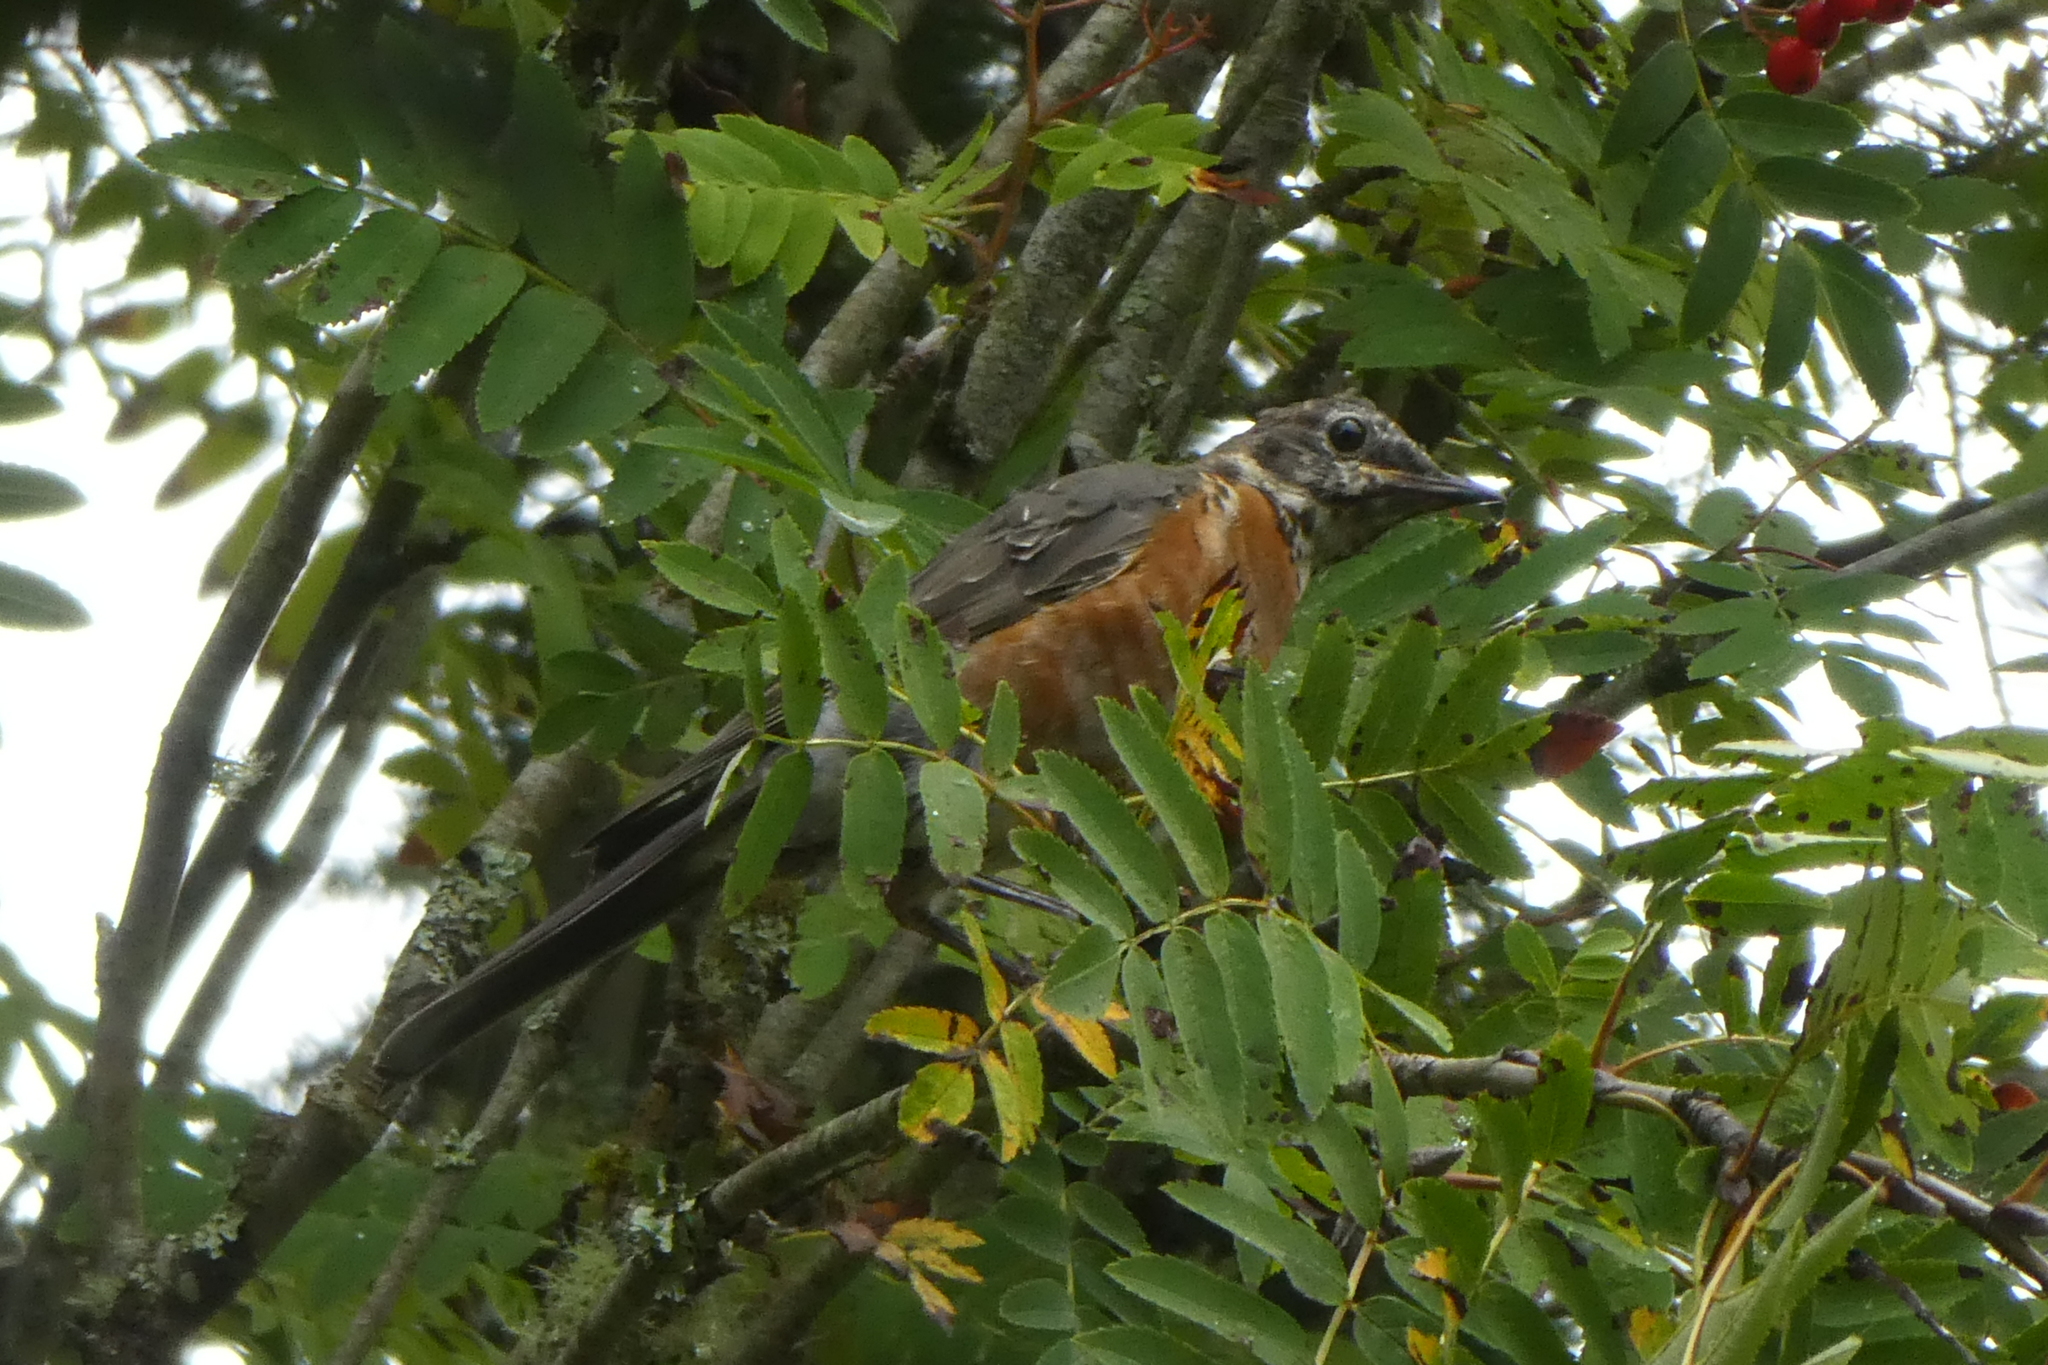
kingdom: Animalia
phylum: Chordata
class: Aves
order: Passeriformes
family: Turdidae
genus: Turdus
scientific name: Turdus migratorius
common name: American robin
